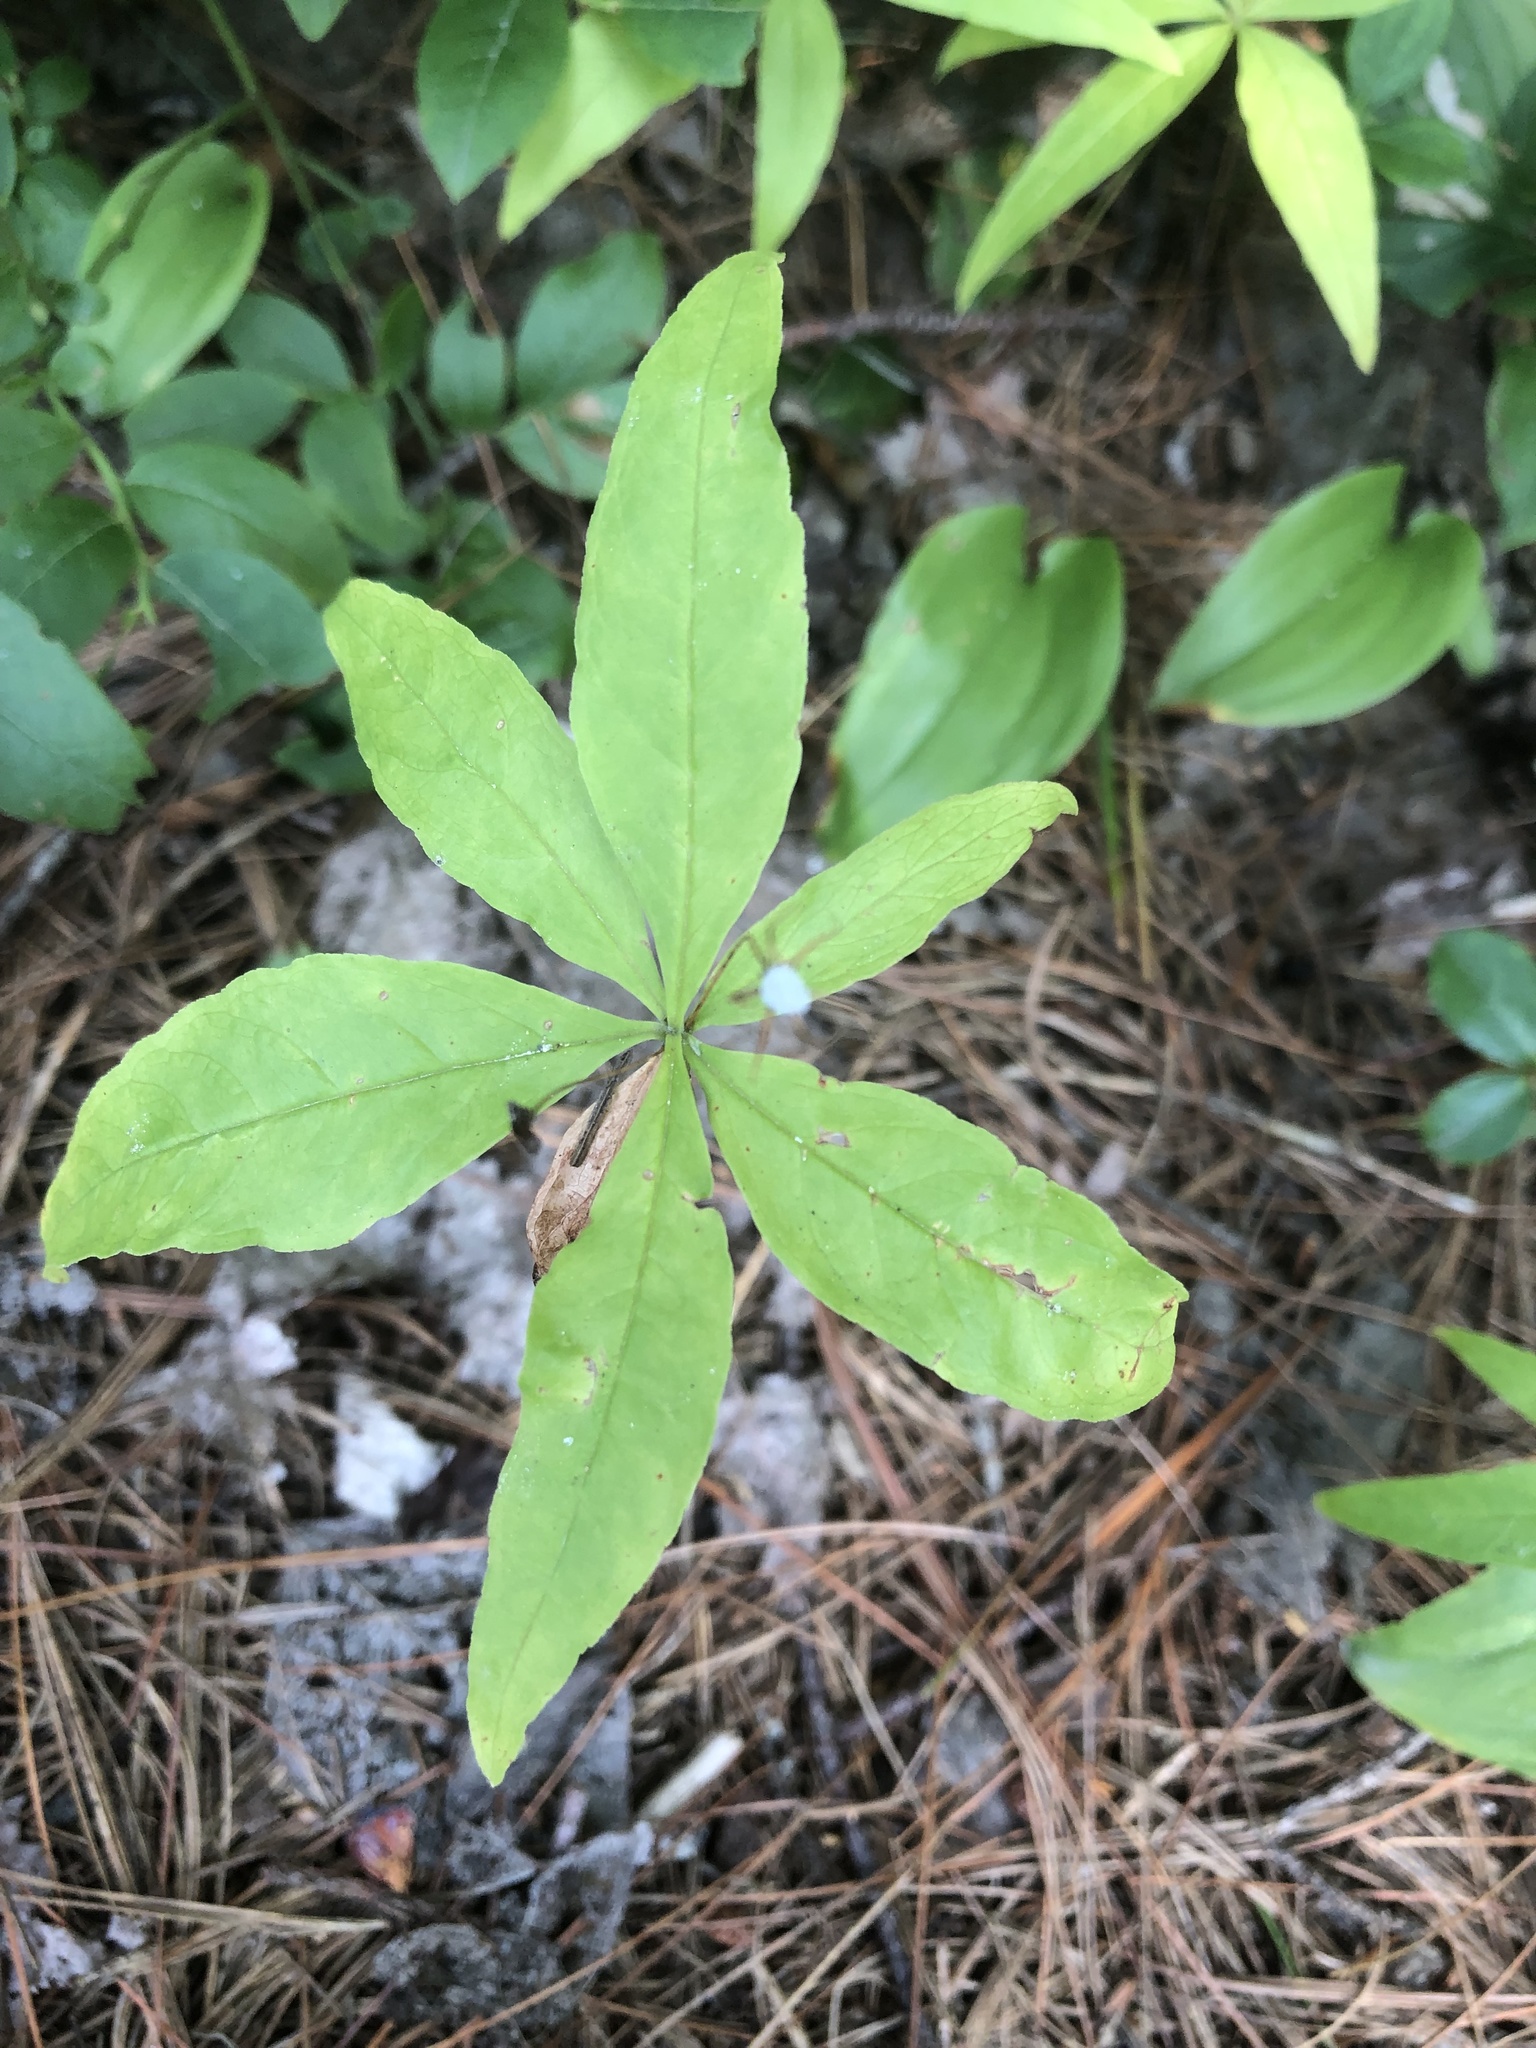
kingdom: Plantae
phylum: Tracheophyta
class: Magnoliopsida
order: Ericales
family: Primulaceae
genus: Lysimachia
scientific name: Lysimachia borealis
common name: American starflower
